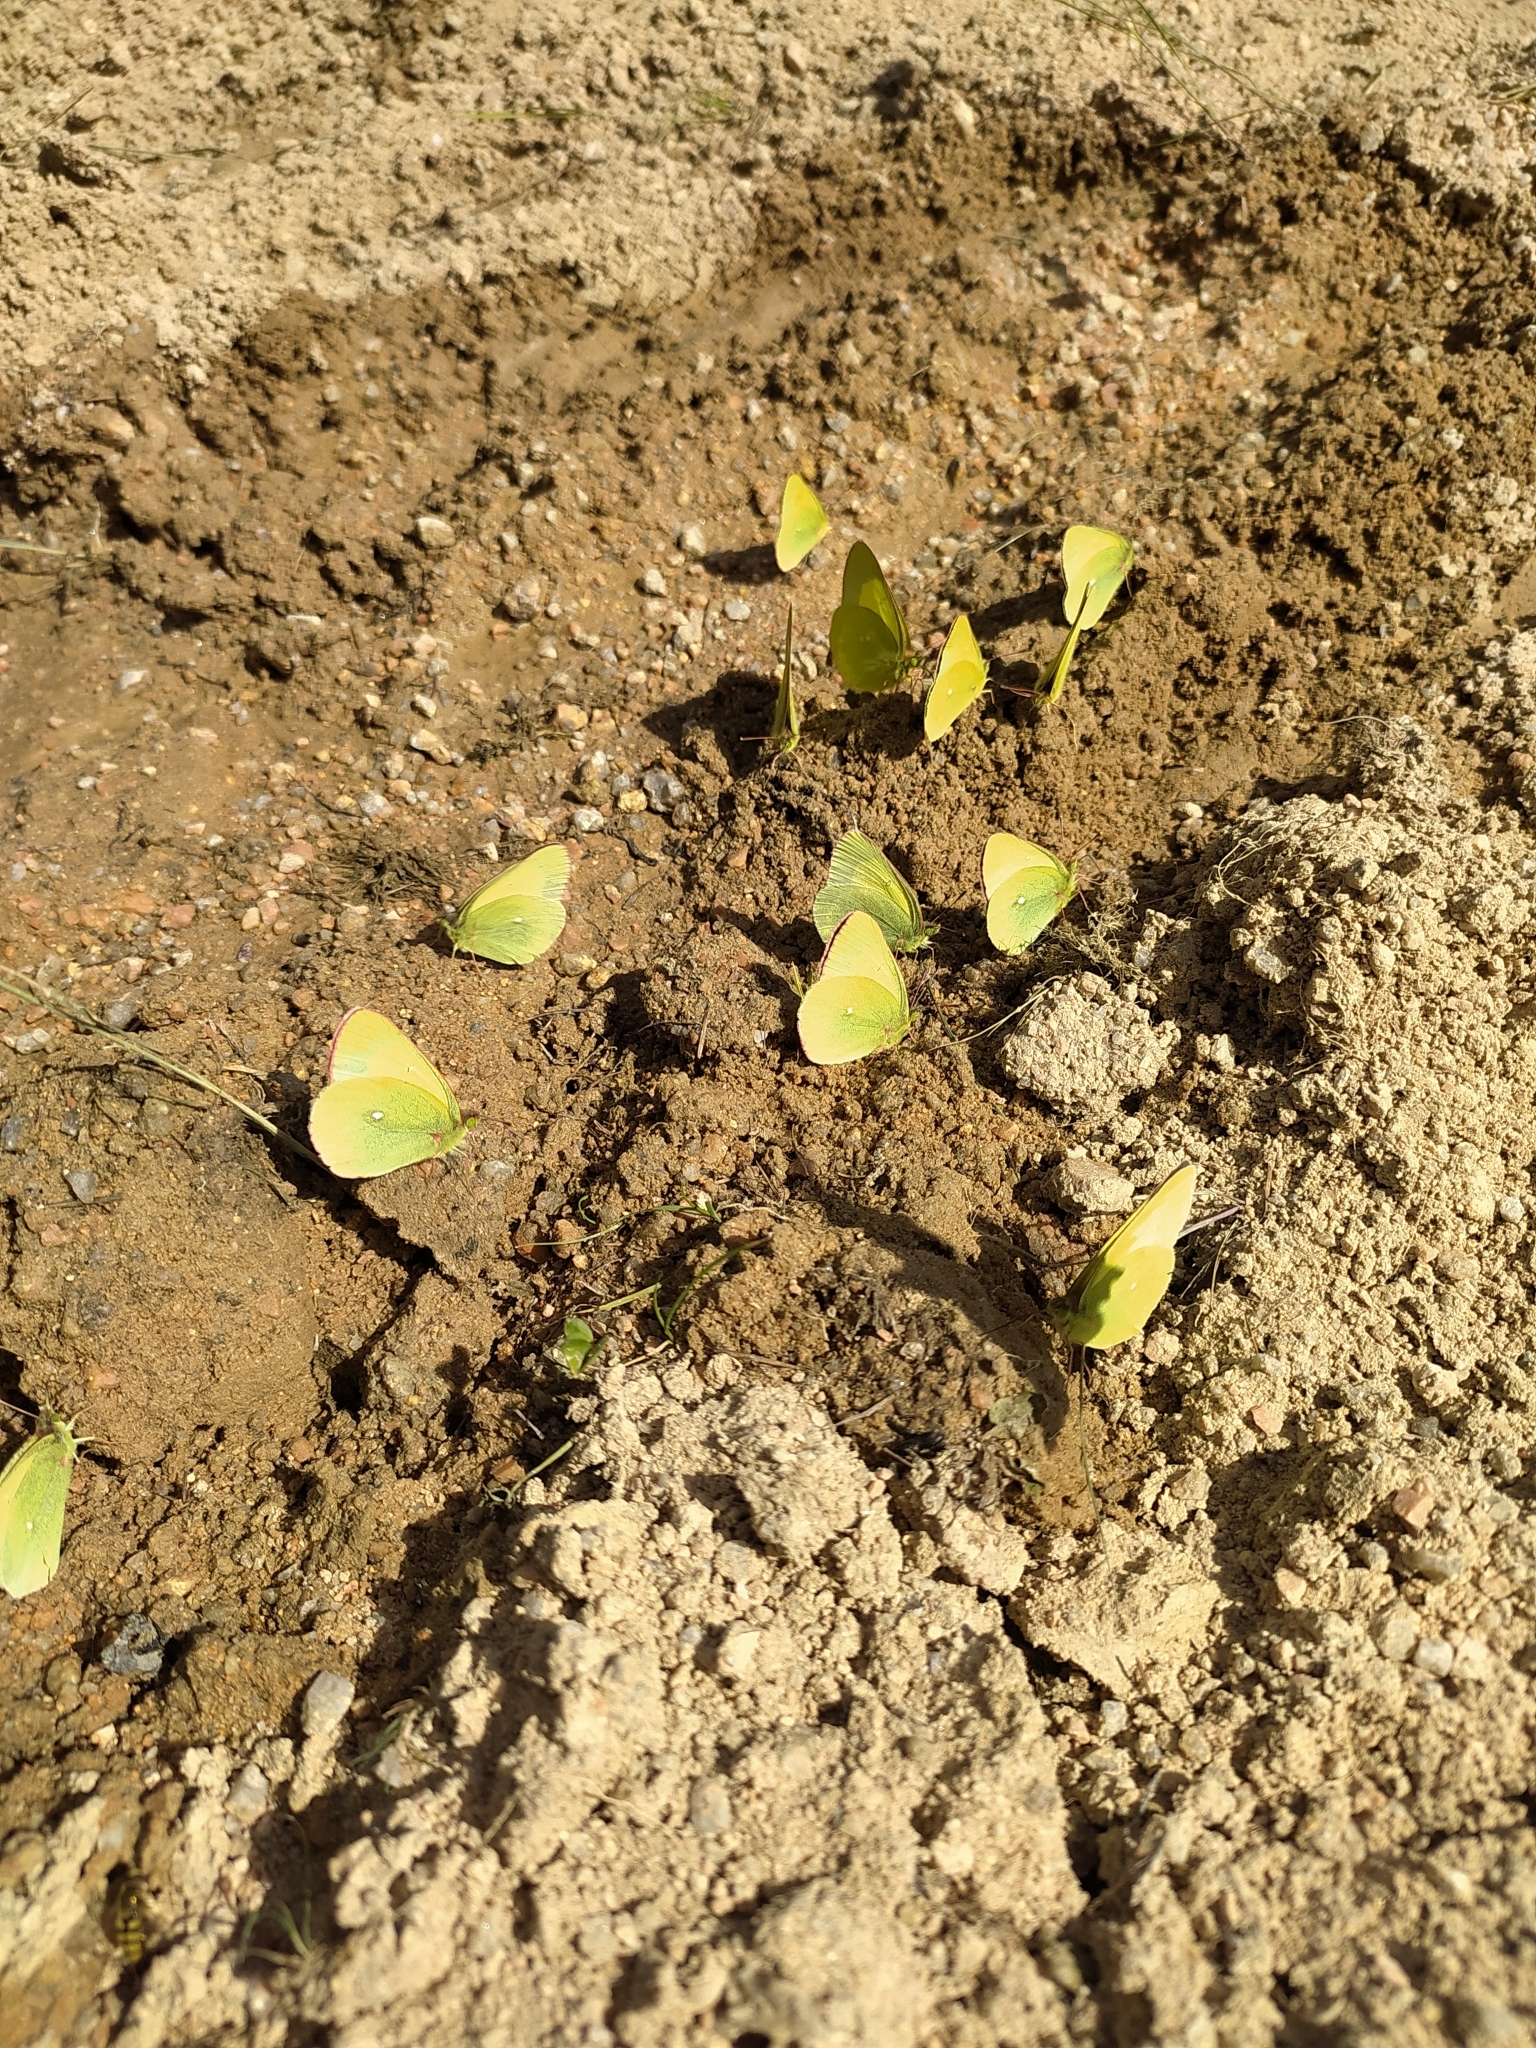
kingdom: Animalia
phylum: Arthropoda
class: Insecta
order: Lepidoptera
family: Pieridae
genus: Colias
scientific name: Colias palaeno
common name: Moorland clouded yellow
